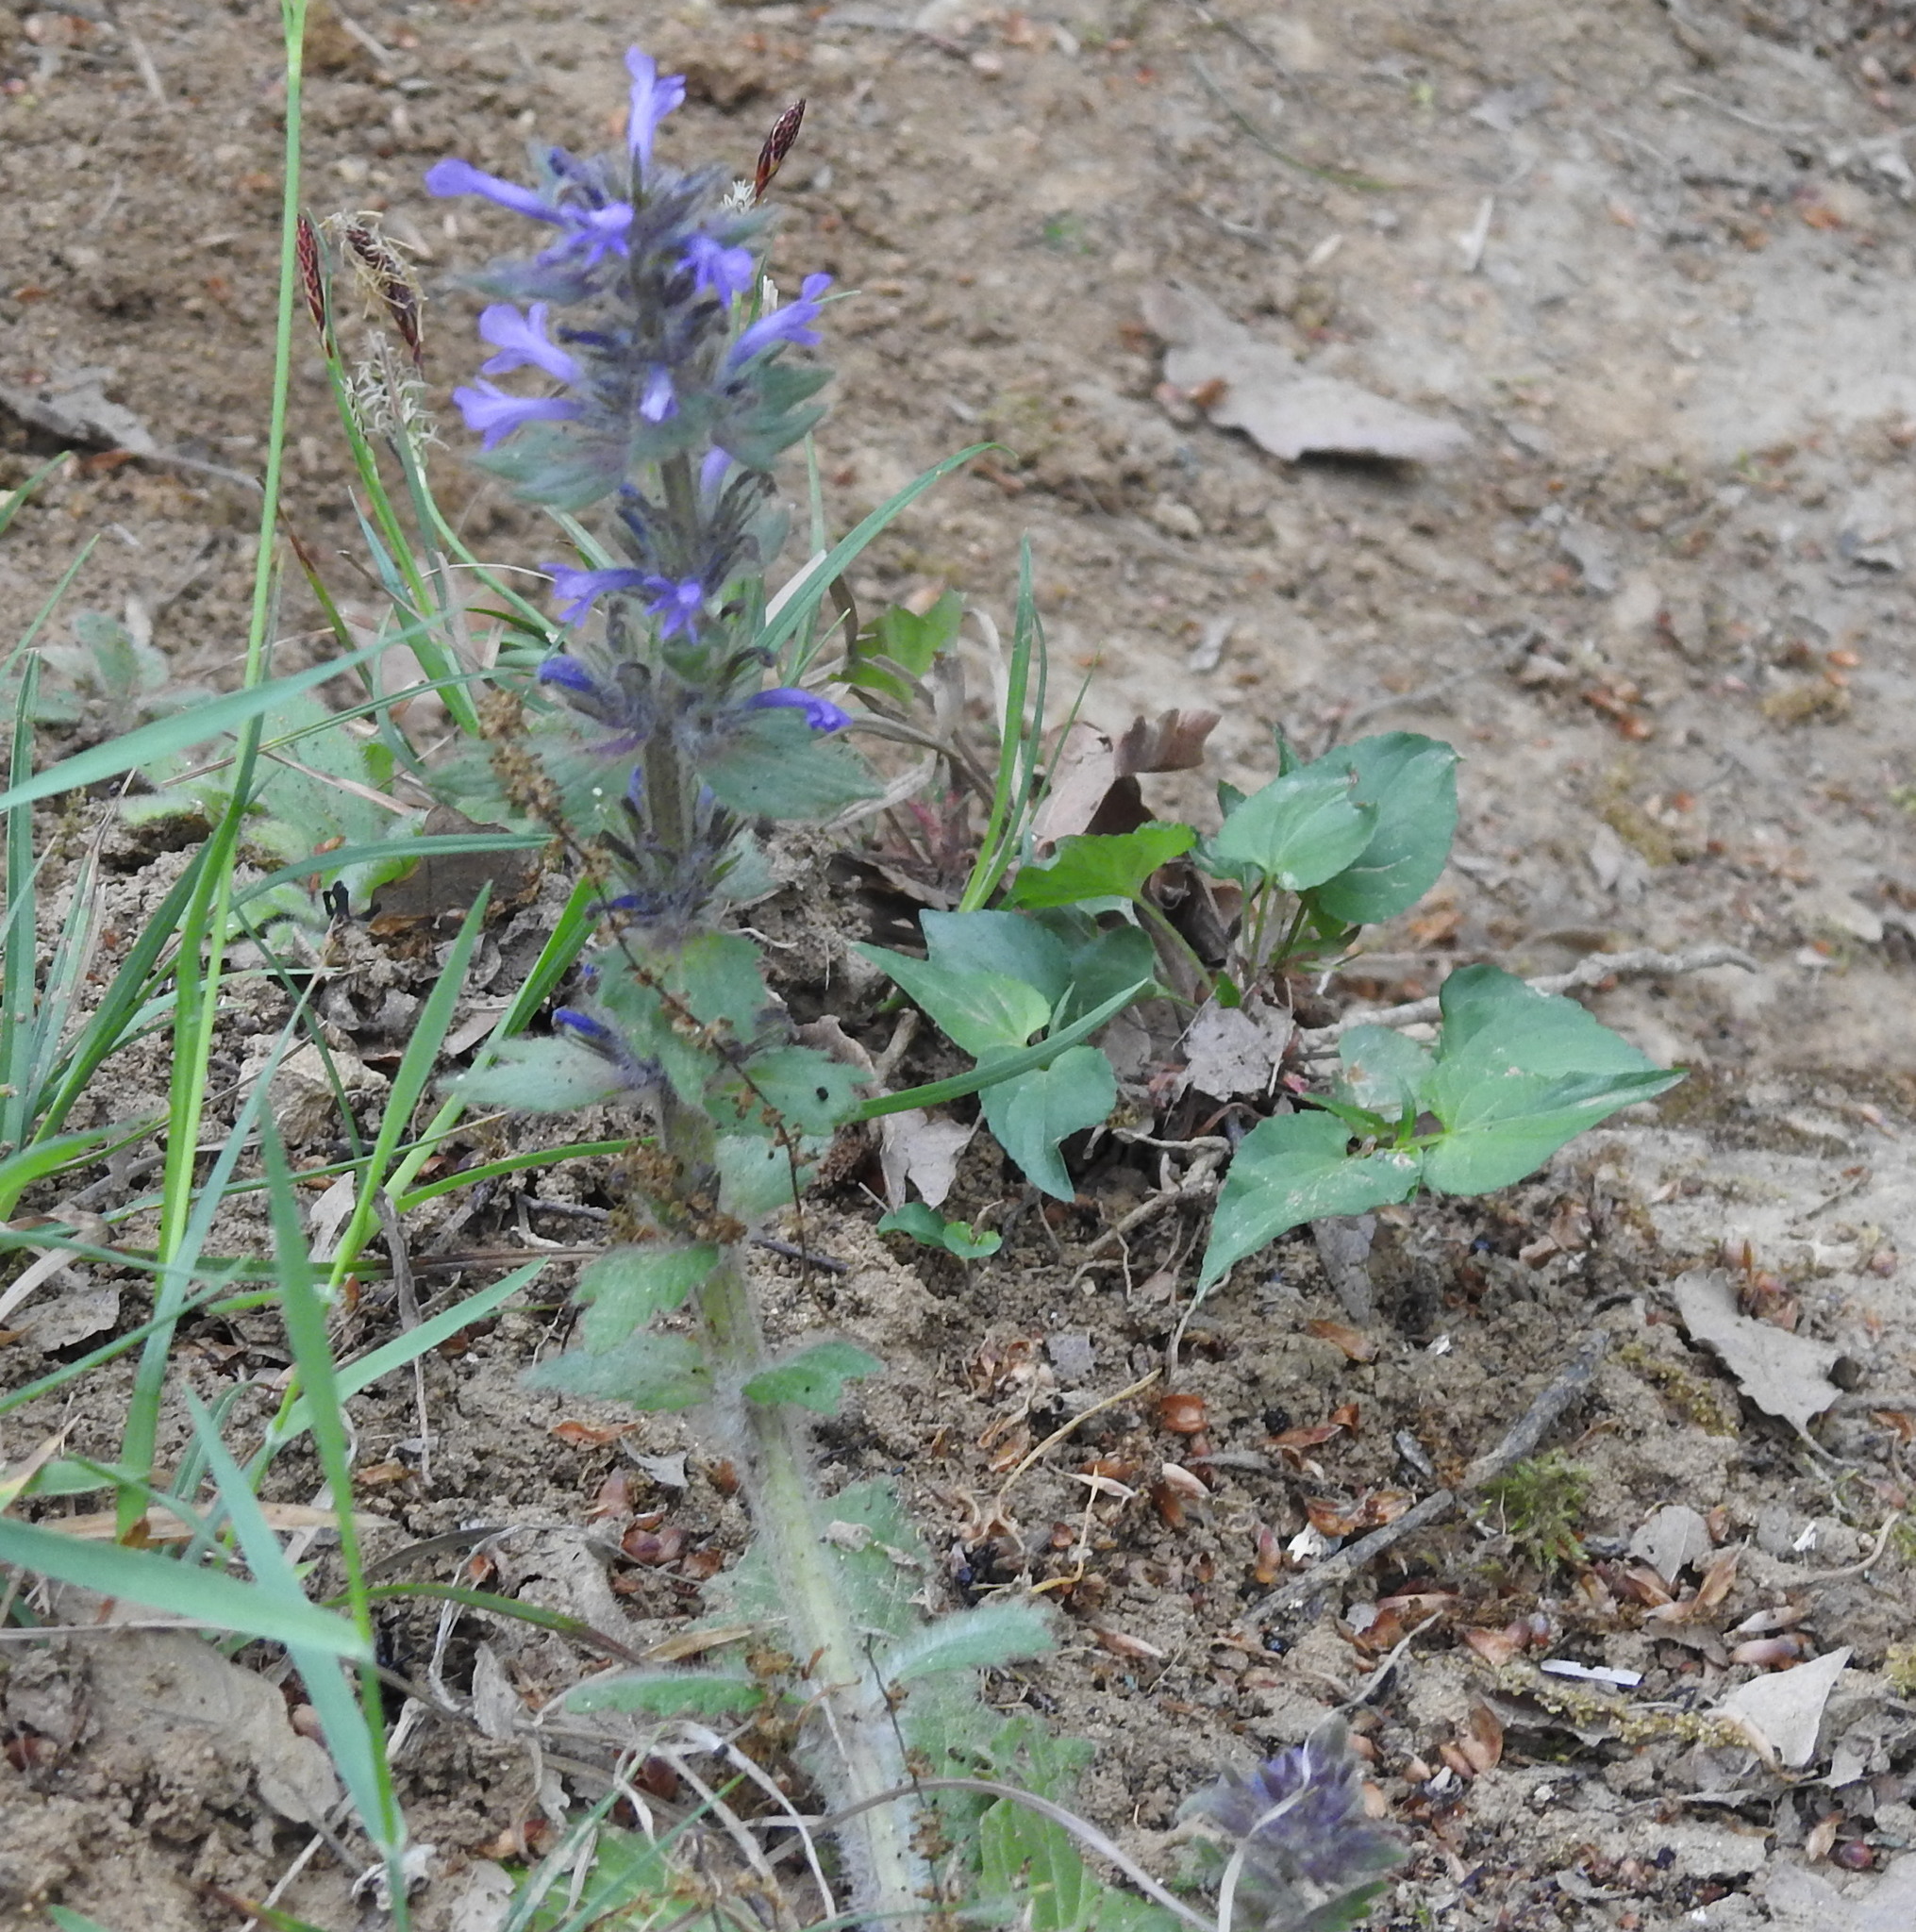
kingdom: Plantae
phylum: Tracheophyta
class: Magnoliopsida
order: Lamiales
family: Lamiaceae
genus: Ajuga
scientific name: Ajuga orientalis
